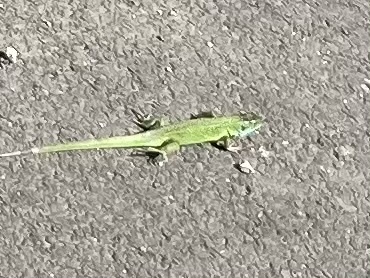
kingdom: Animalia
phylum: Chordata
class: Squamata
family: Lacertidae
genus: Lacerta
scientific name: Lacerta bilineata
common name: Western green lizard
